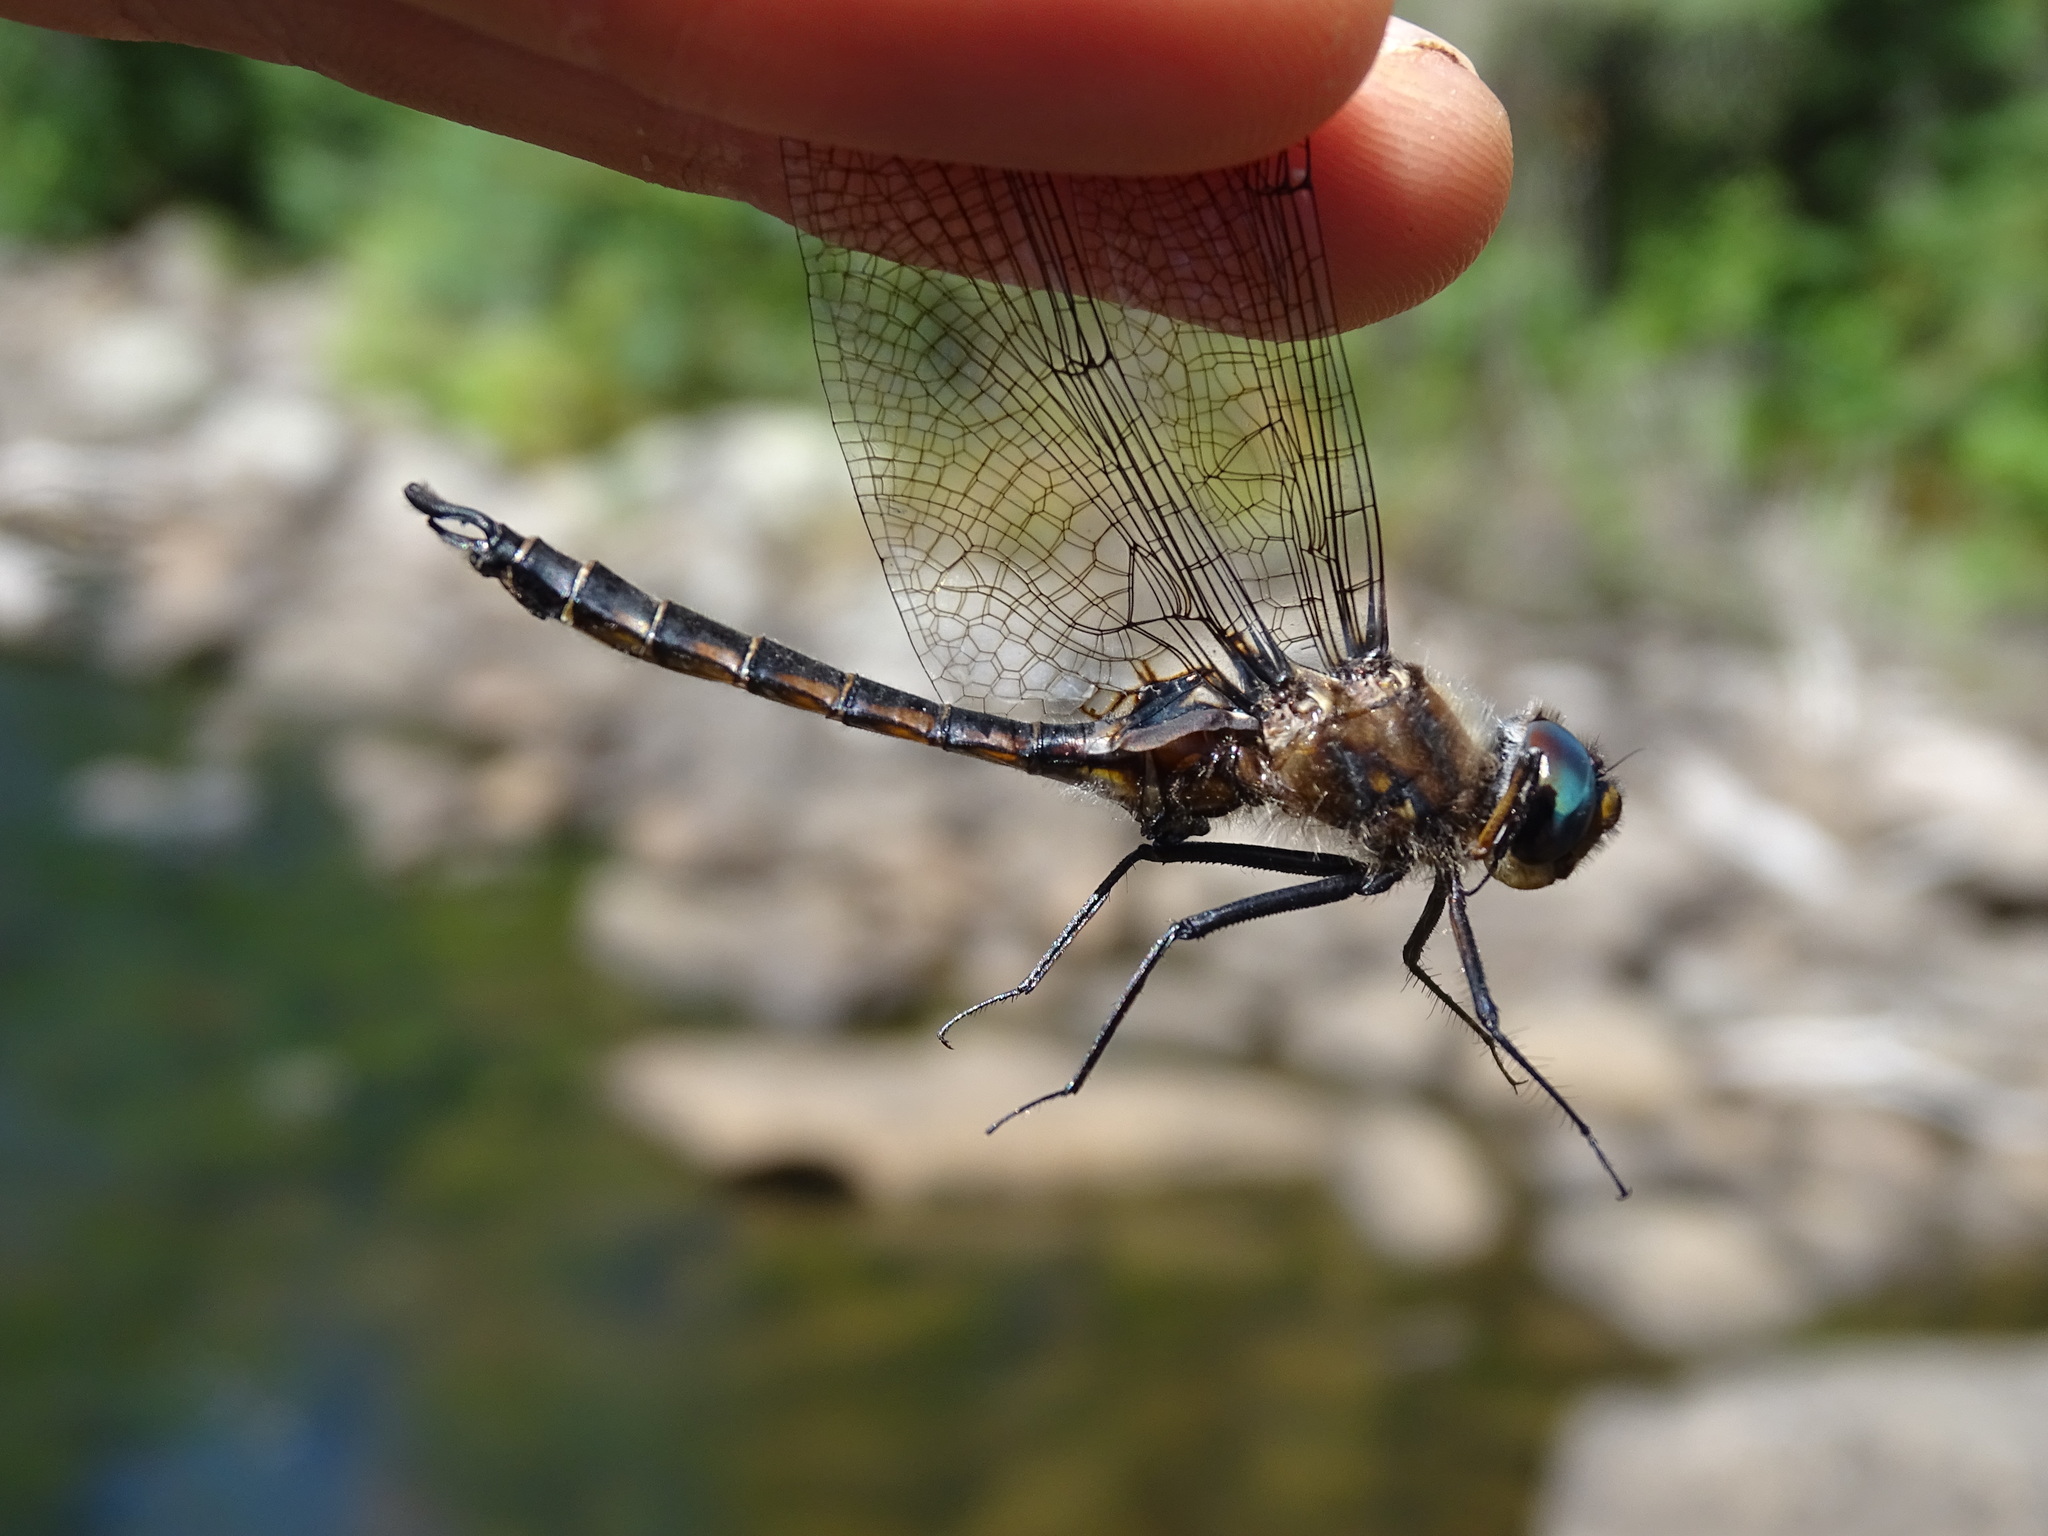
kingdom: Animalia
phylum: Arthropoda
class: Insecta
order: Odonata
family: Corduliidae
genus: Epitheca
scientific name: Epitheca spinigera
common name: Spiny baskettail
